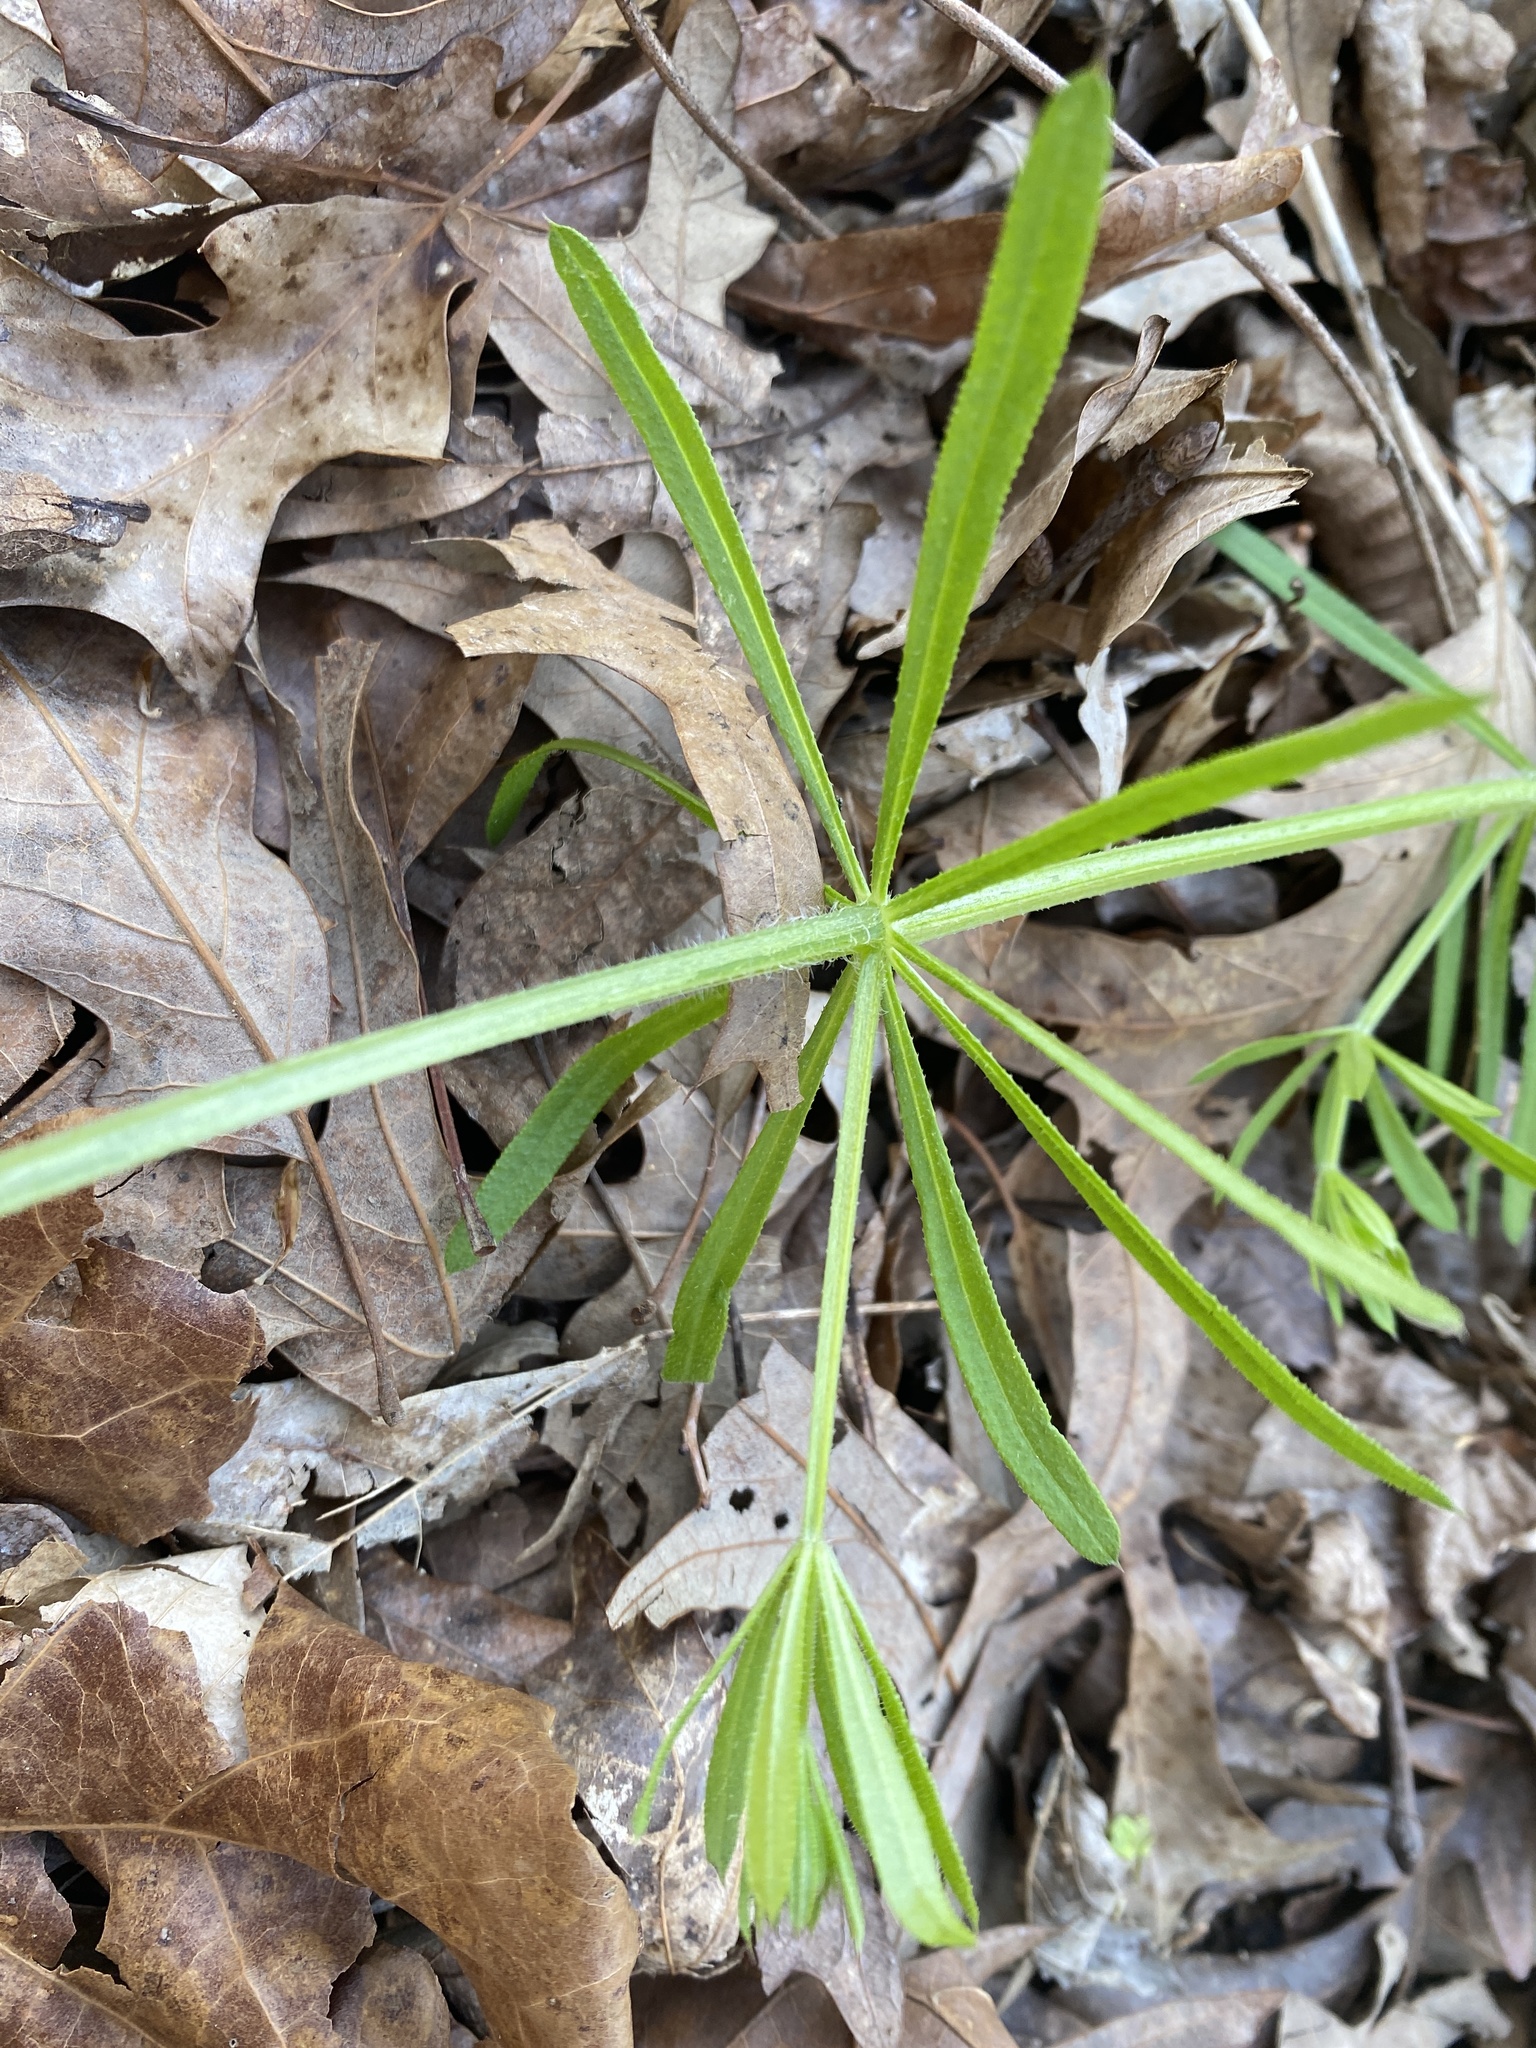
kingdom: Plantae
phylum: Tracheophyta
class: Magnoliopsida
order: Gentianales
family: Rubiaceae
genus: Galium
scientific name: Galium aparine
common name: Cleavers
